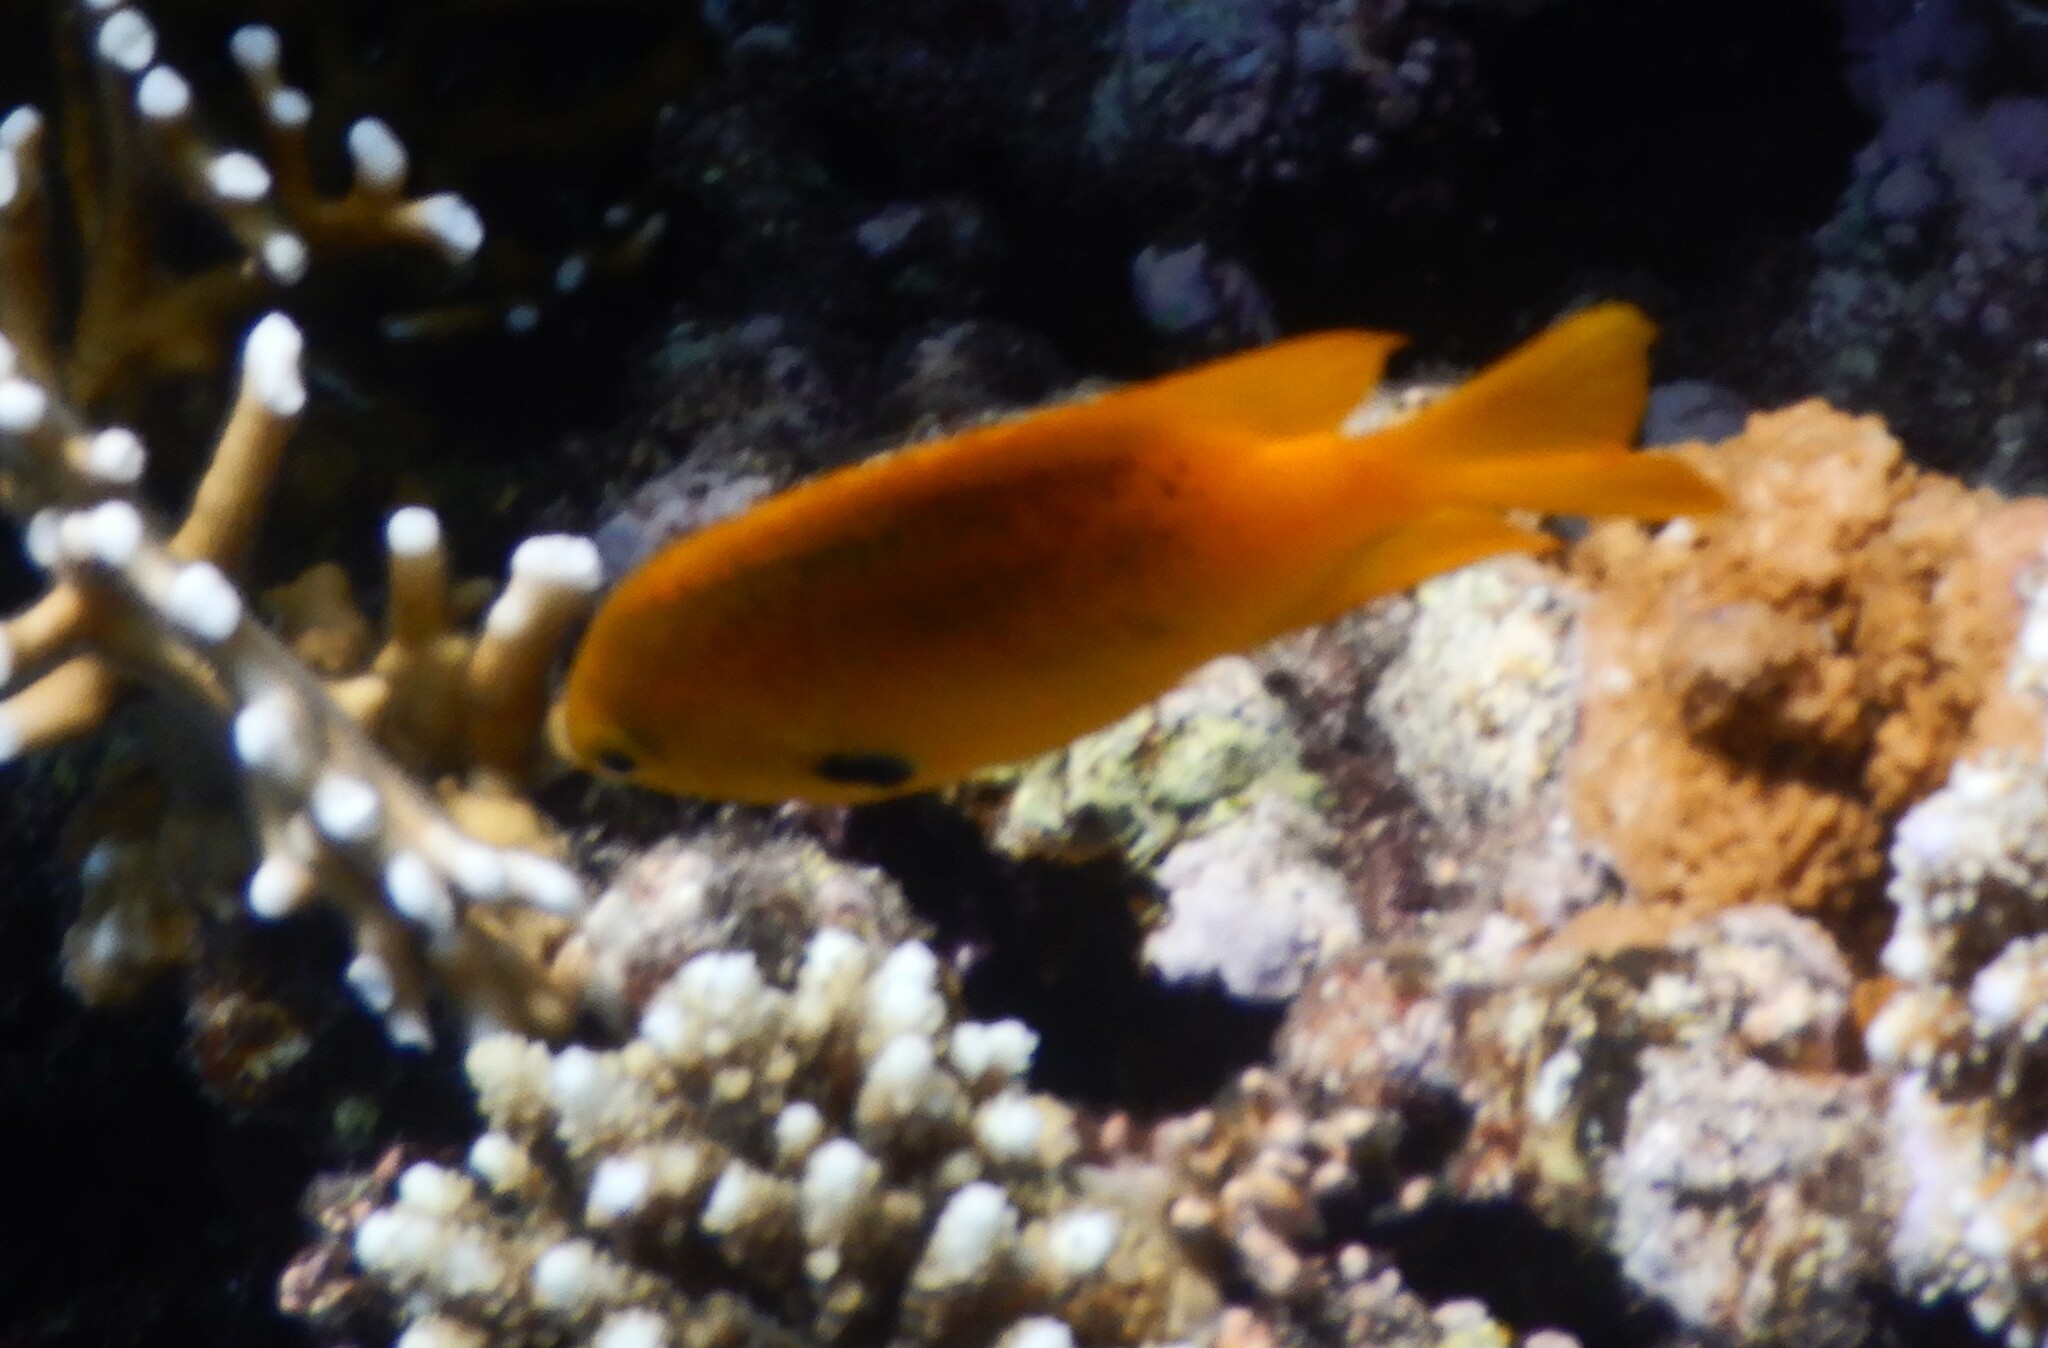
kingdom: Animalia
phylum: Chordata
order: Perciformes
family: Pomacentridae
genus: Pomacentrus
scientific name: Pomacentrus sulfureus
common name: Sulfur damsel
